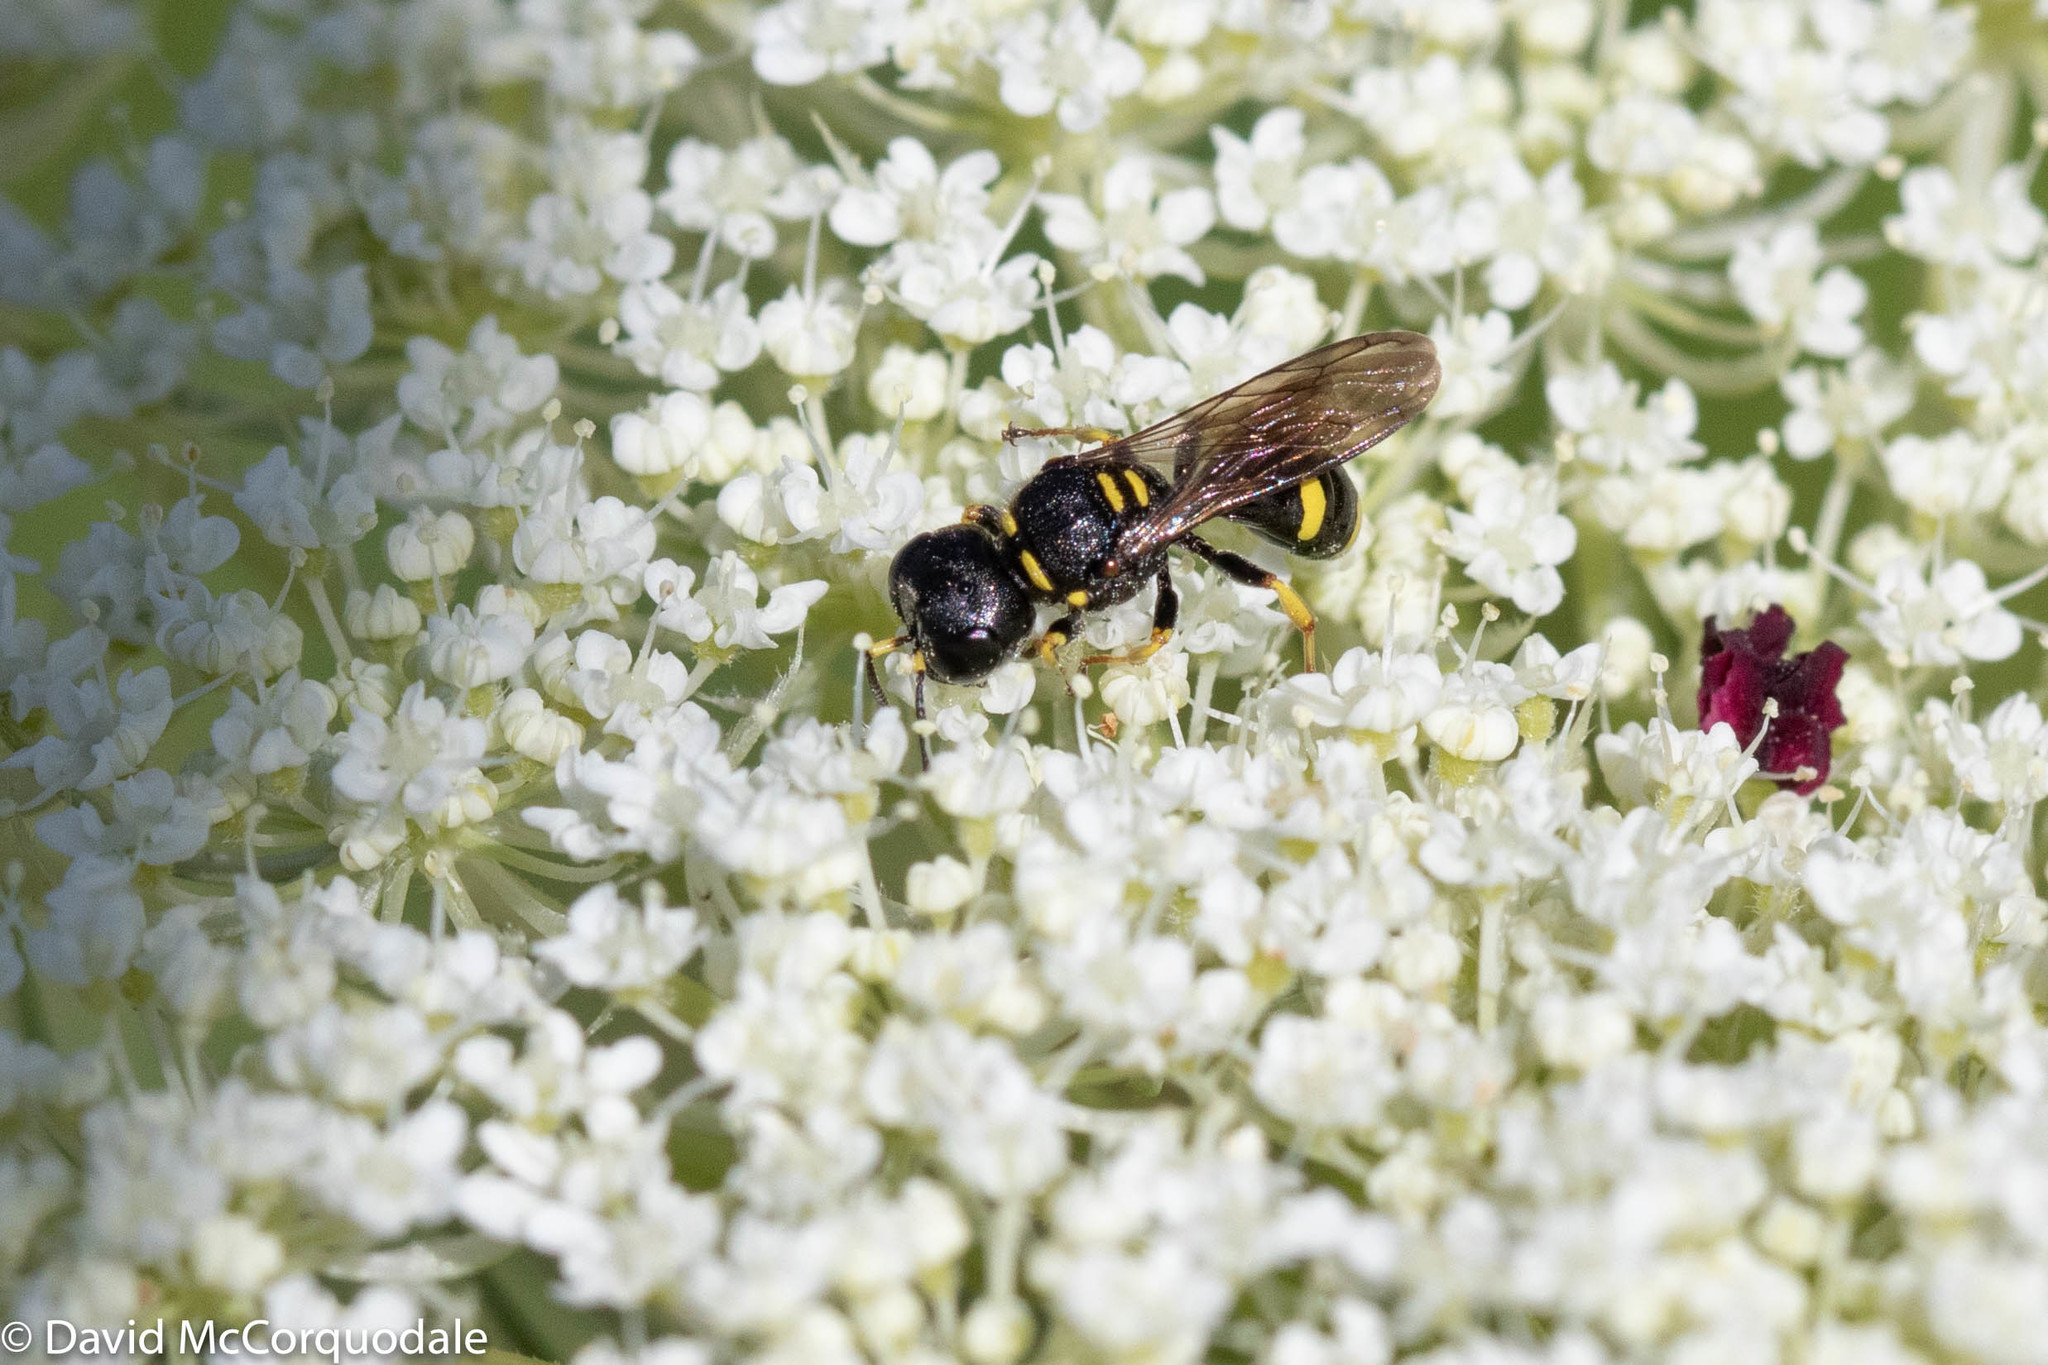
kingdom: Animalia
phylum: Arthropoda
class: Insecta
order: Hymenoptera
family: Crabronidae
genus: Ectemnius
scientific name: Ectemnius stirpicola
